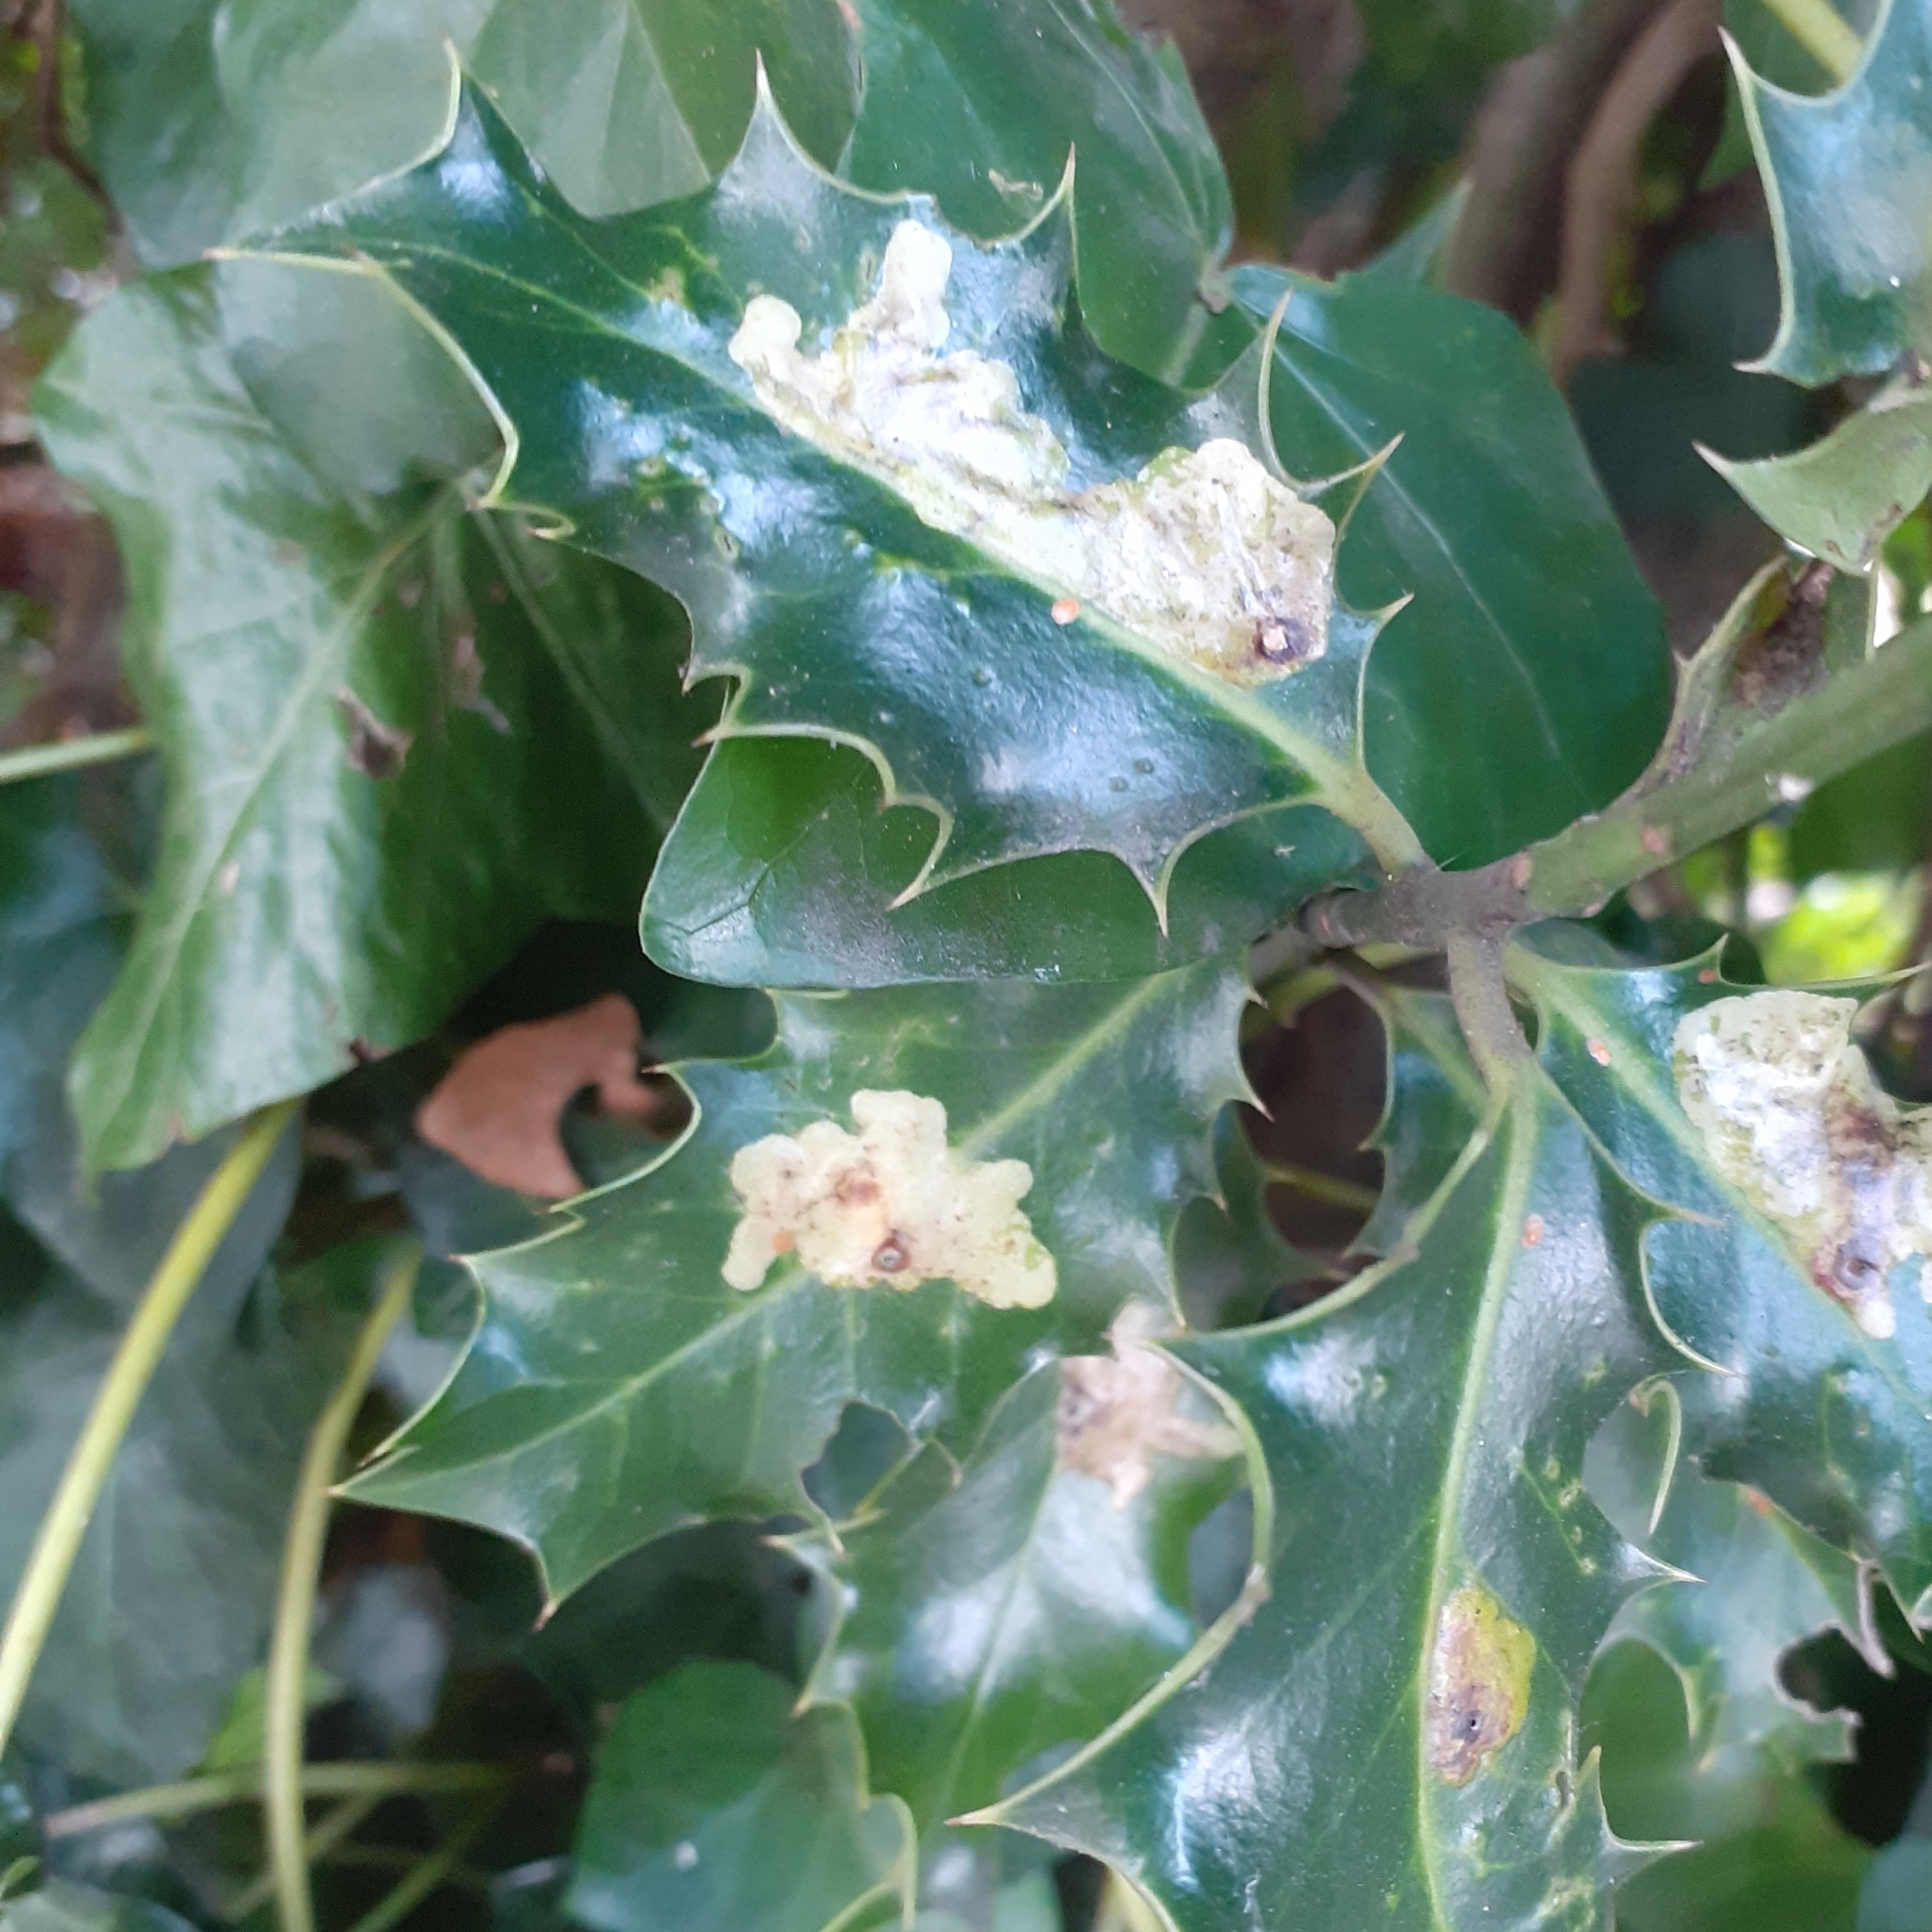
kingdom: Animalia
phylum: Arthropoda
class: Insecta
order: Diptera
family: Agromyzidae
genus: Phytomyza
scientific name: Phytomyza ilicis
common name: Holly leafminer
